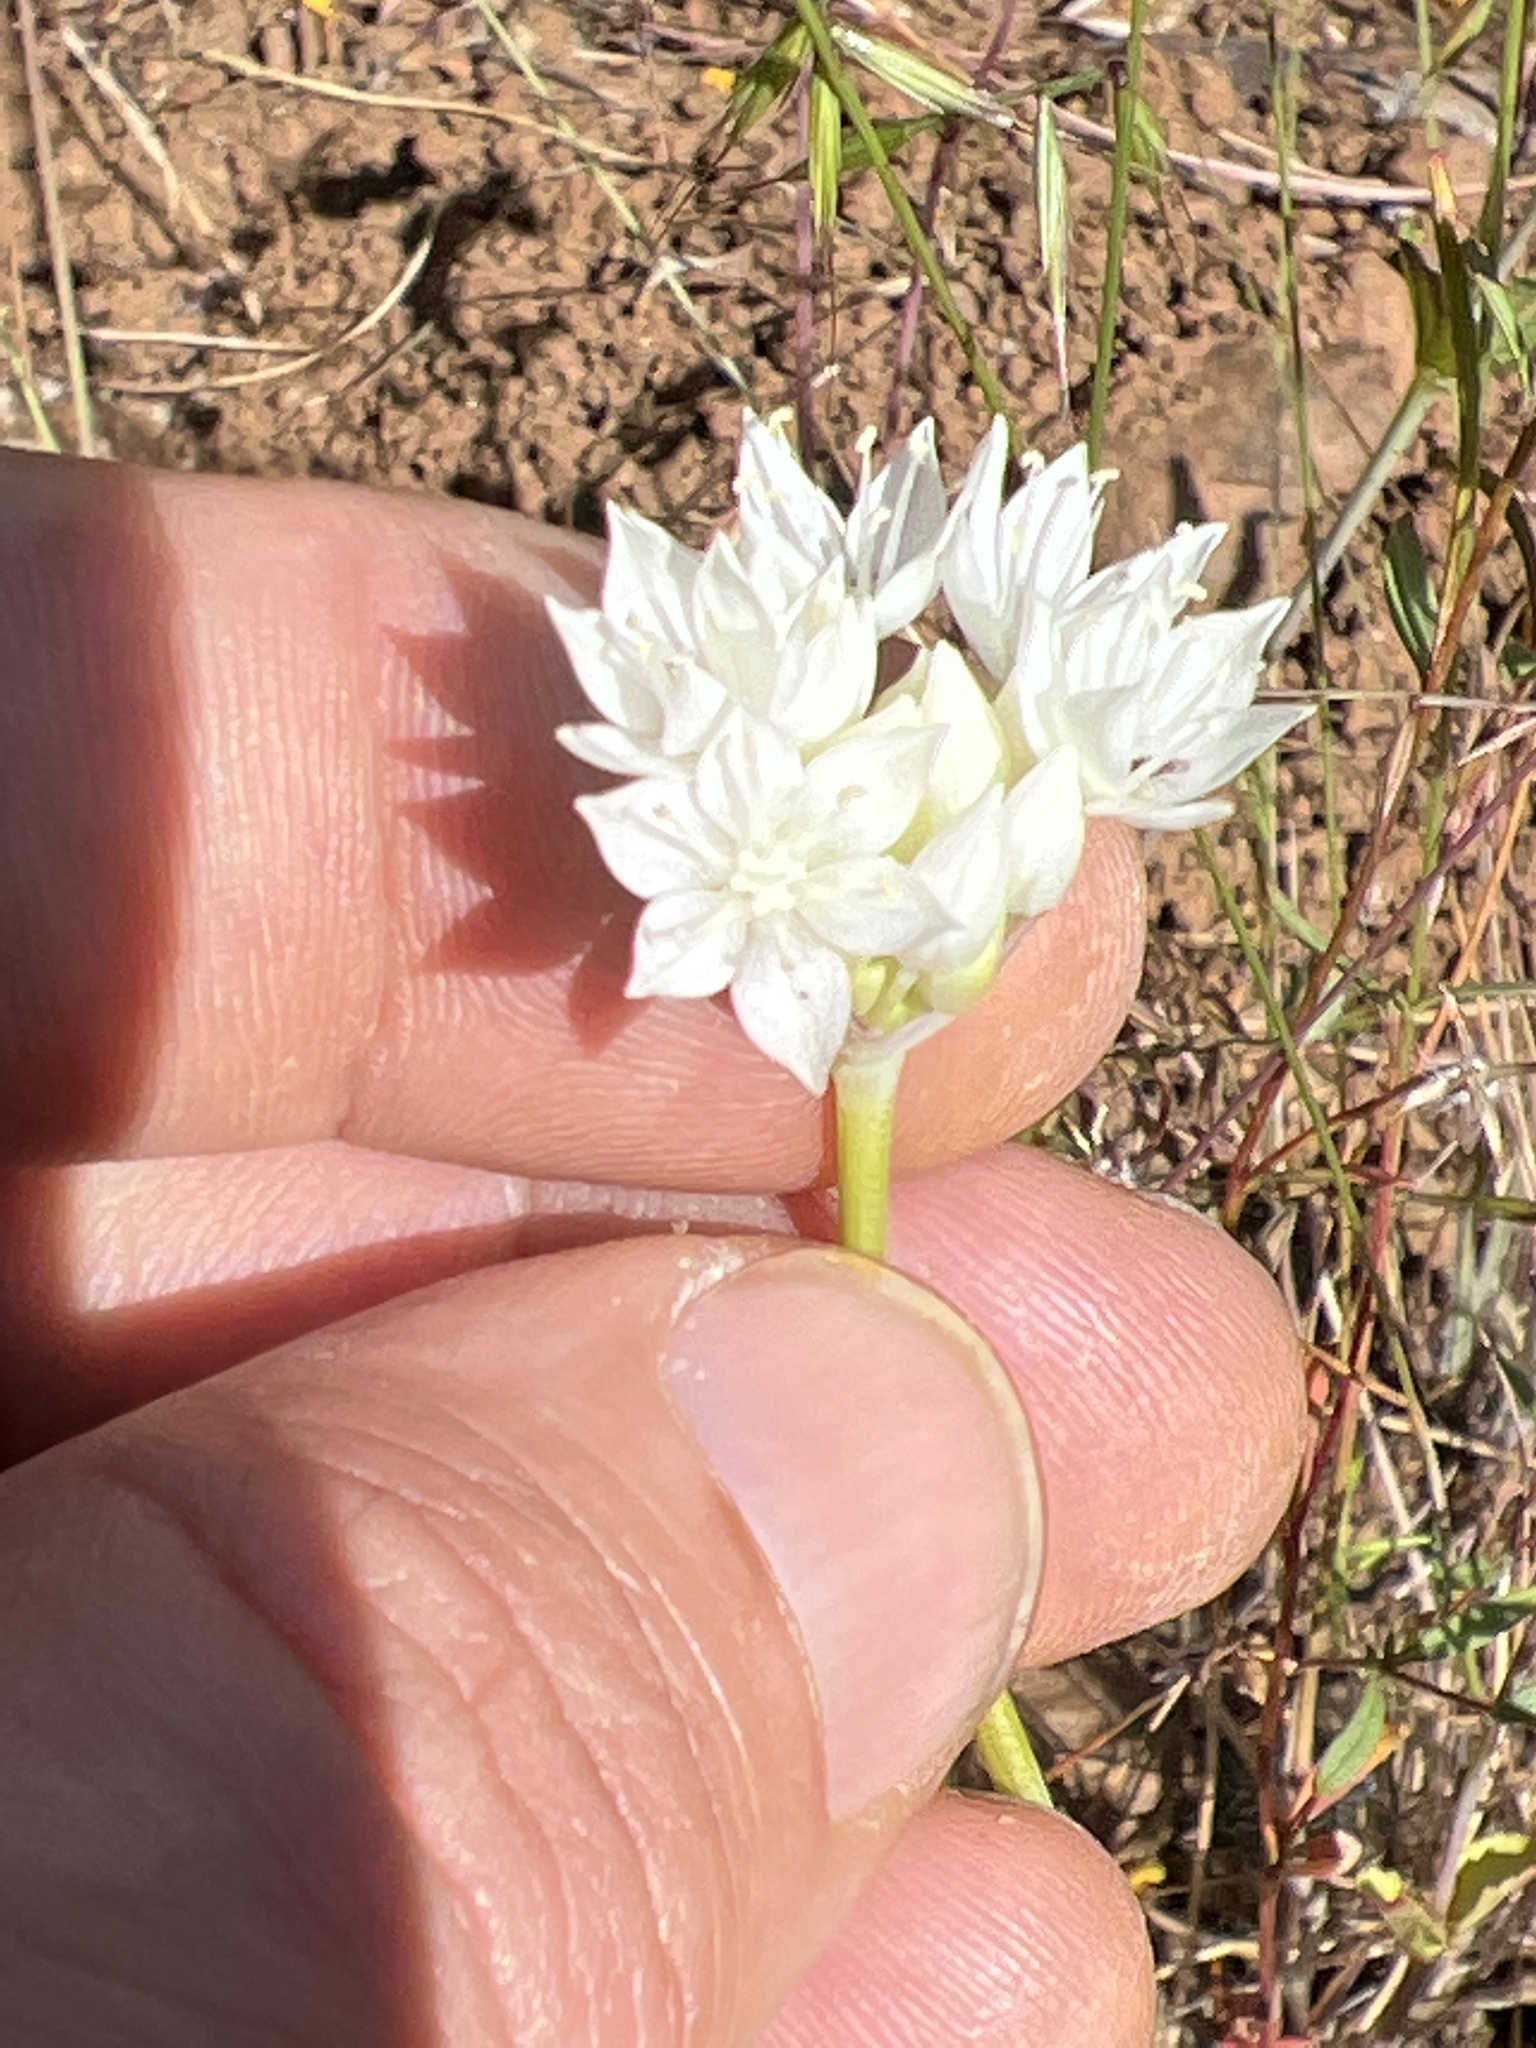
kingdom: Plantae
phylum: Tracheophyta
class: Liliopsida
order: Asparagales
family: Amaryllidaceae
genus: Allium
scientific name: Allium amplectens
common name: Narrow-leaved onion
